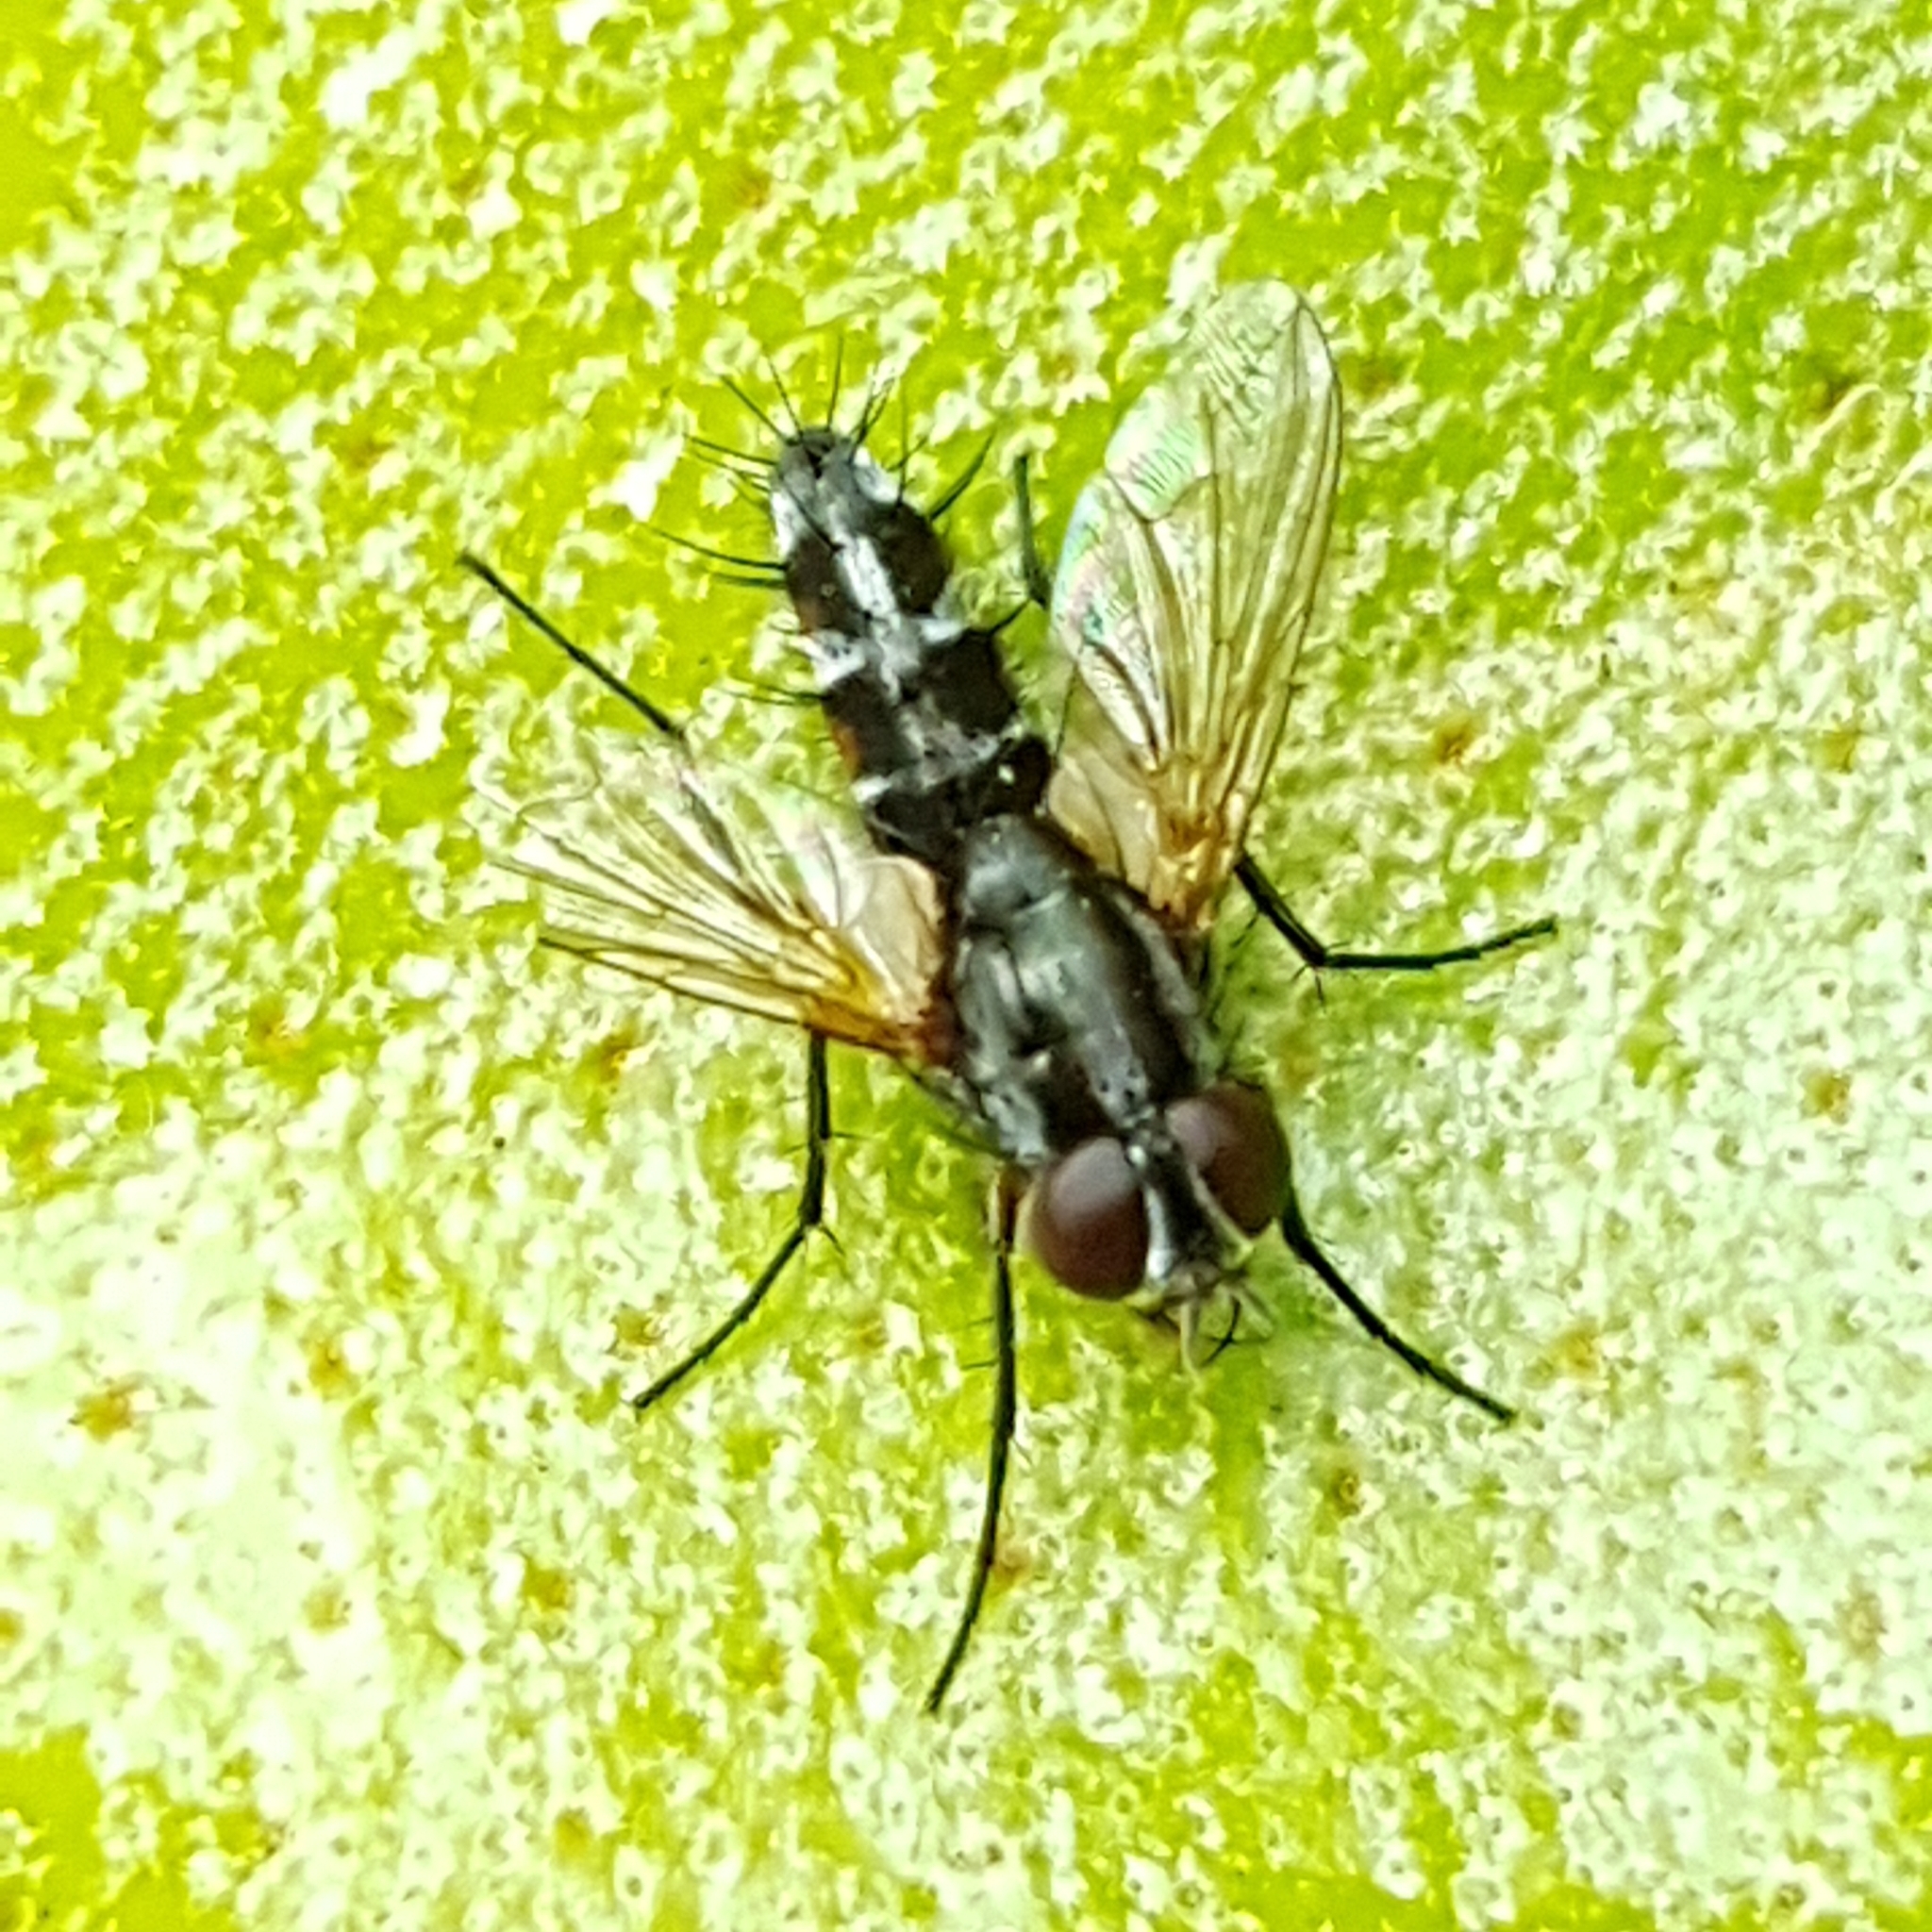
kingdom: Animalia
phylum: Arthropoda
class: Insecta
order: Diptera
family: Tachinidae
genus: Mintho
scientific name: Mintho rufiventris
